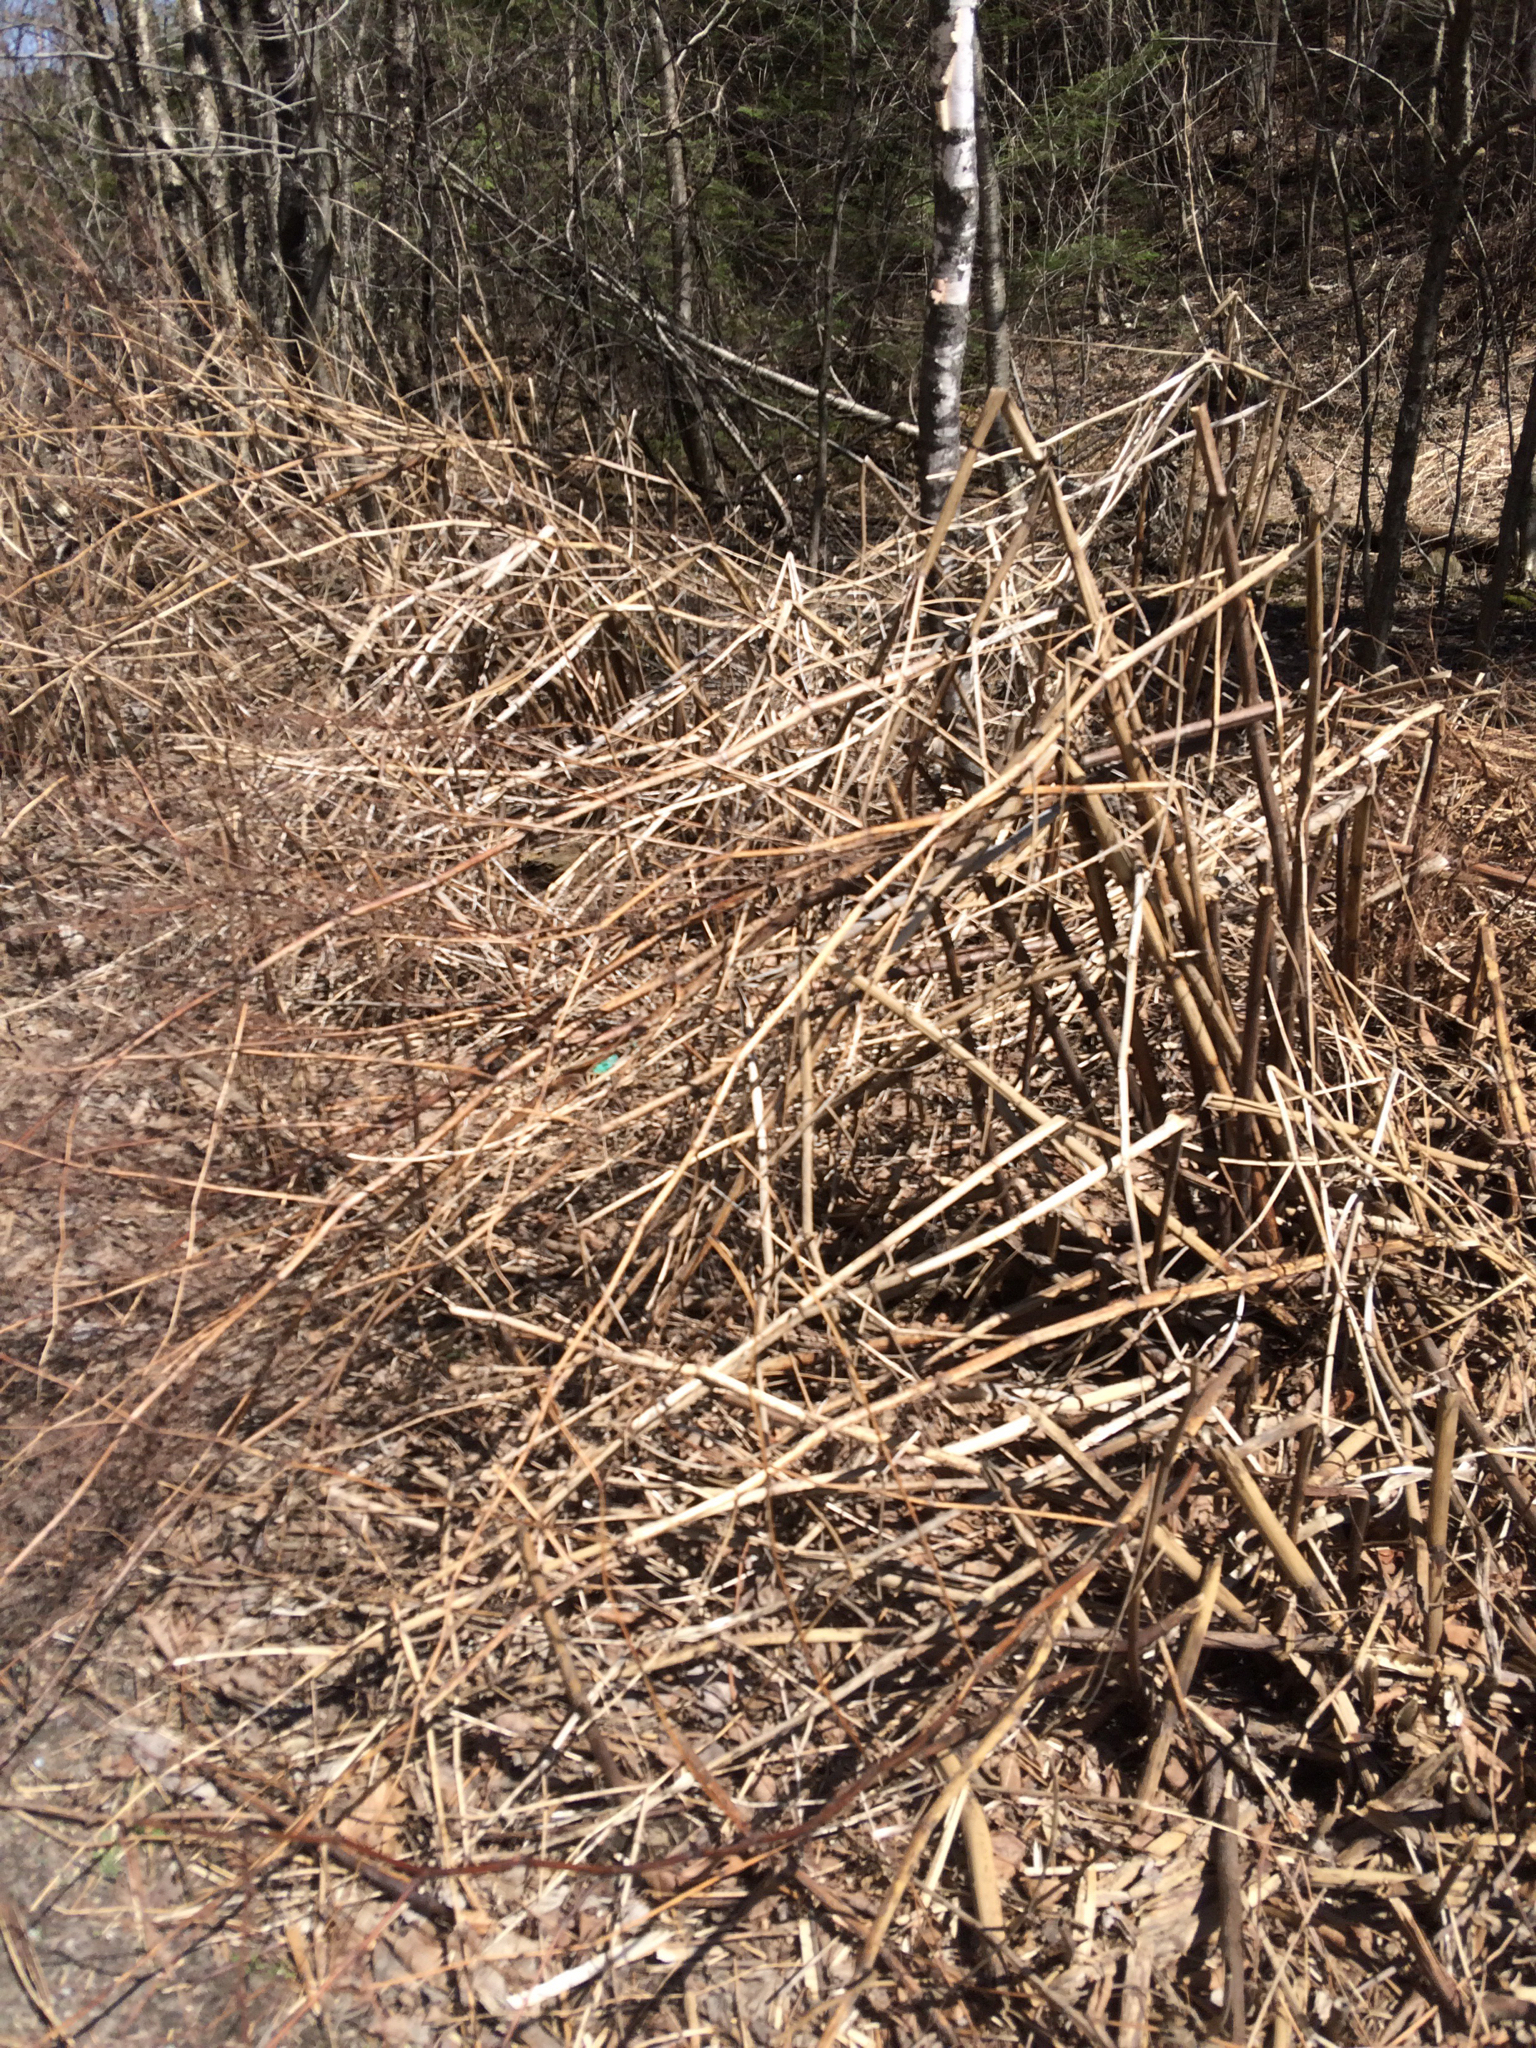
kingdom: Plantae
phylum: Tracheophyta
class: Magnoliopsida
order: Caryophyllales
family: Polygonaceae
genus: Reynoutria
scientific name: Reynoutria japonica
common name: Japanese knotweed
